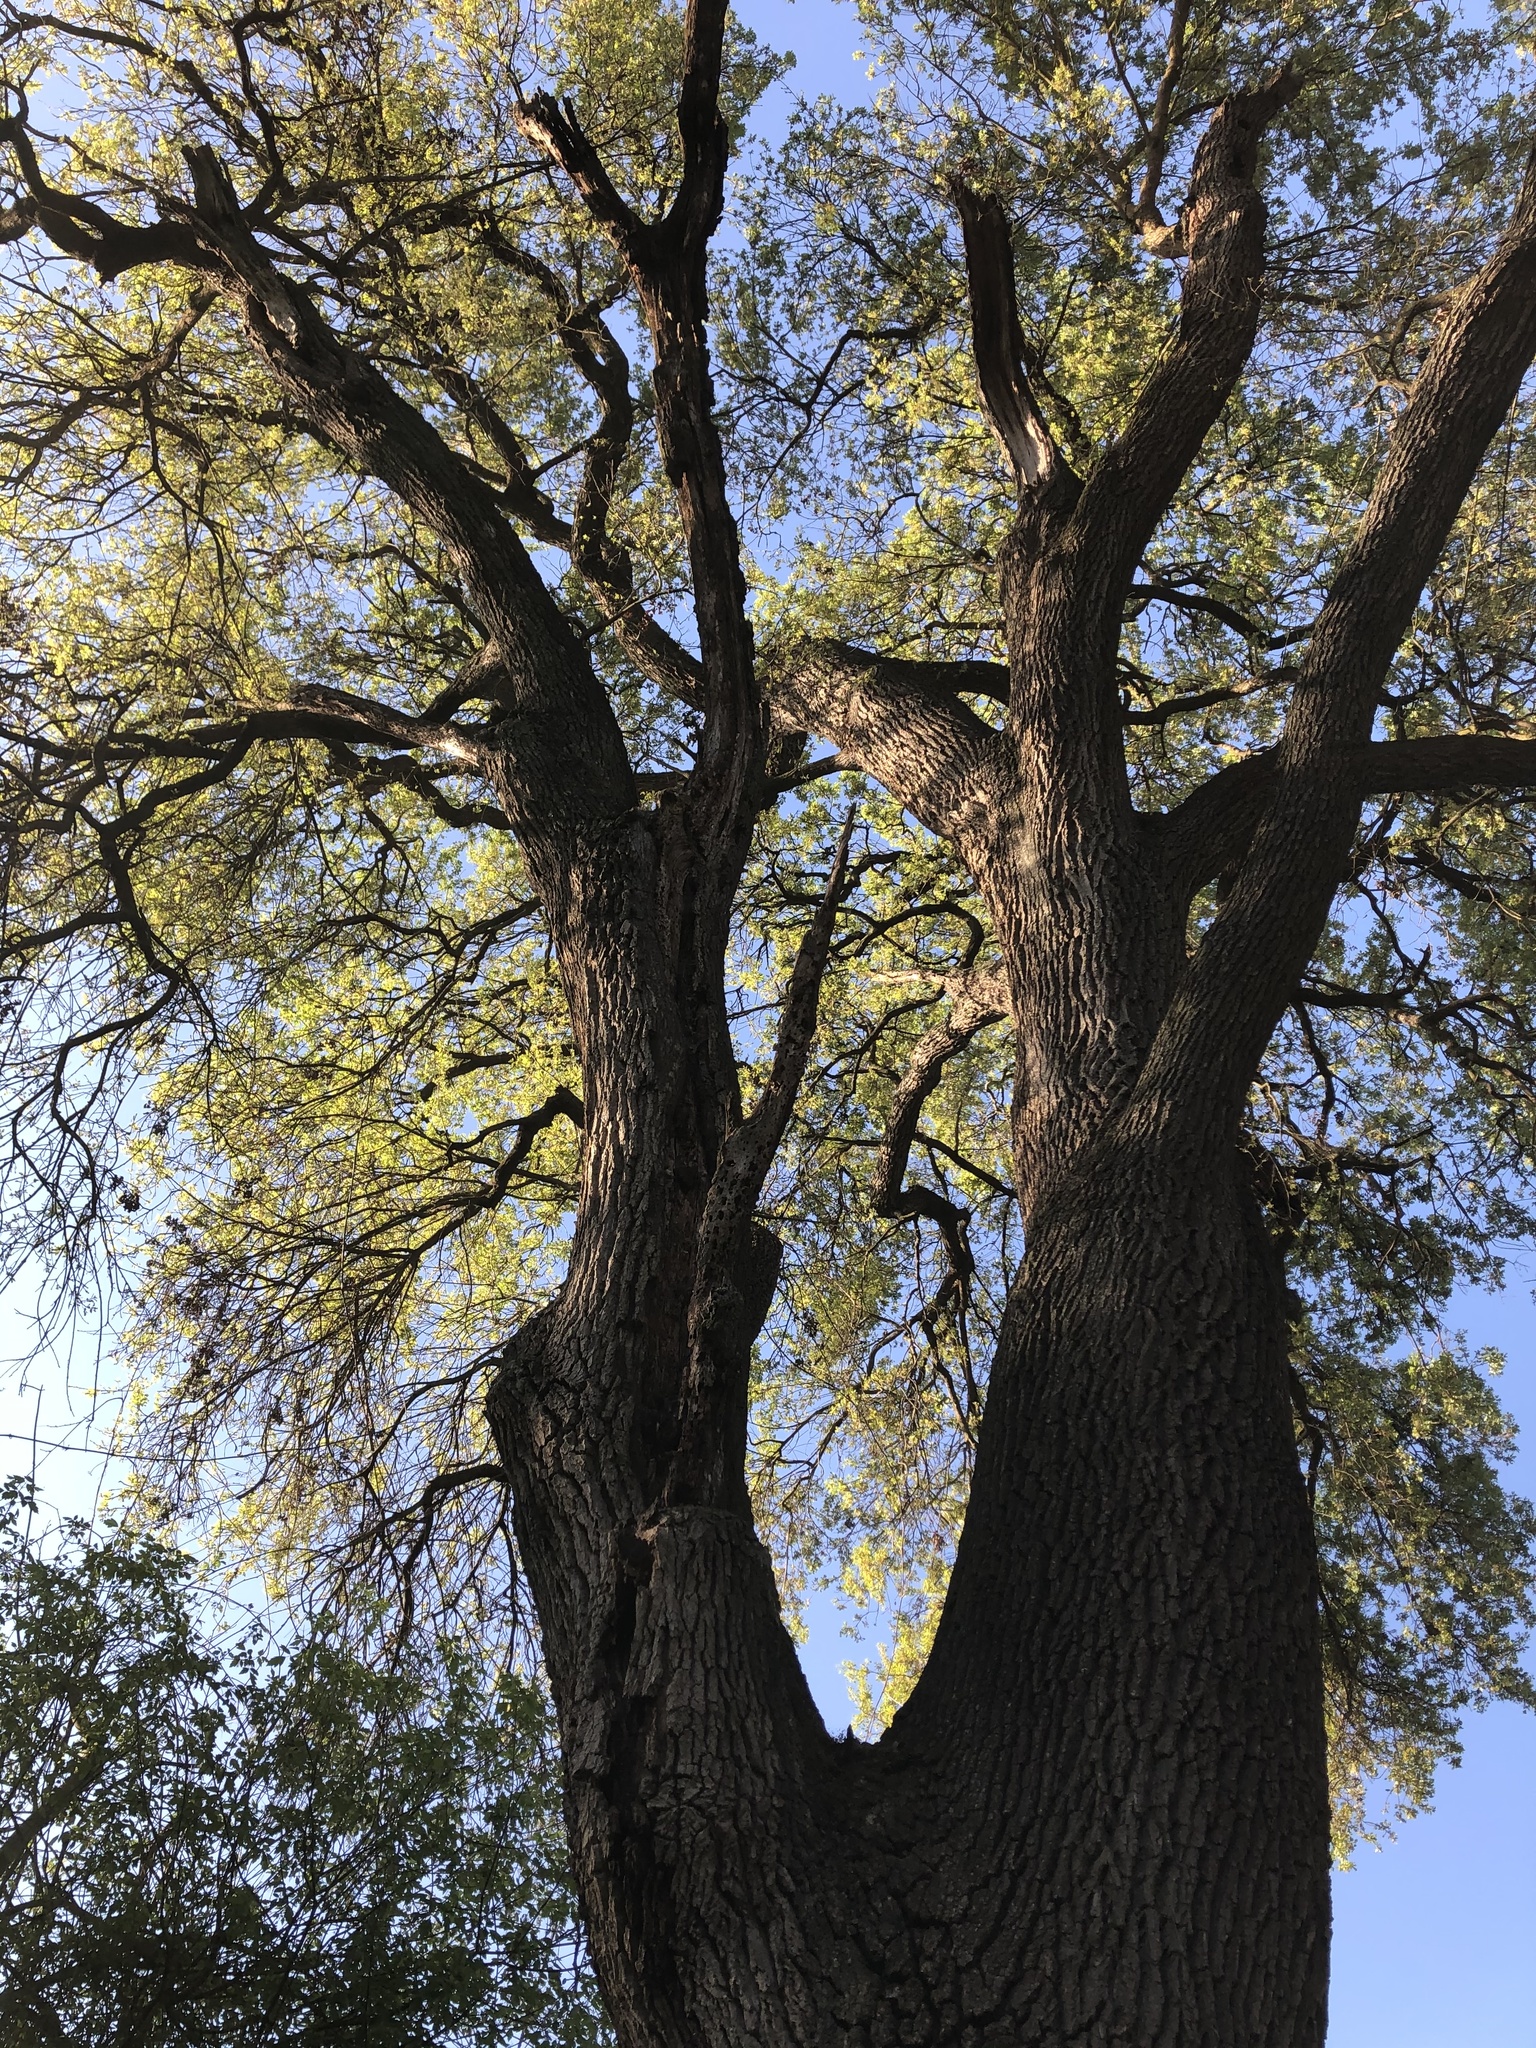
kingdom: Plantae
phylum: Tracheophyta
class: Magnoliopsida
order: Fagales
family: Fagaceae
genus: Quercus
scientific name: Quercus lobata
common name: Valley oak
